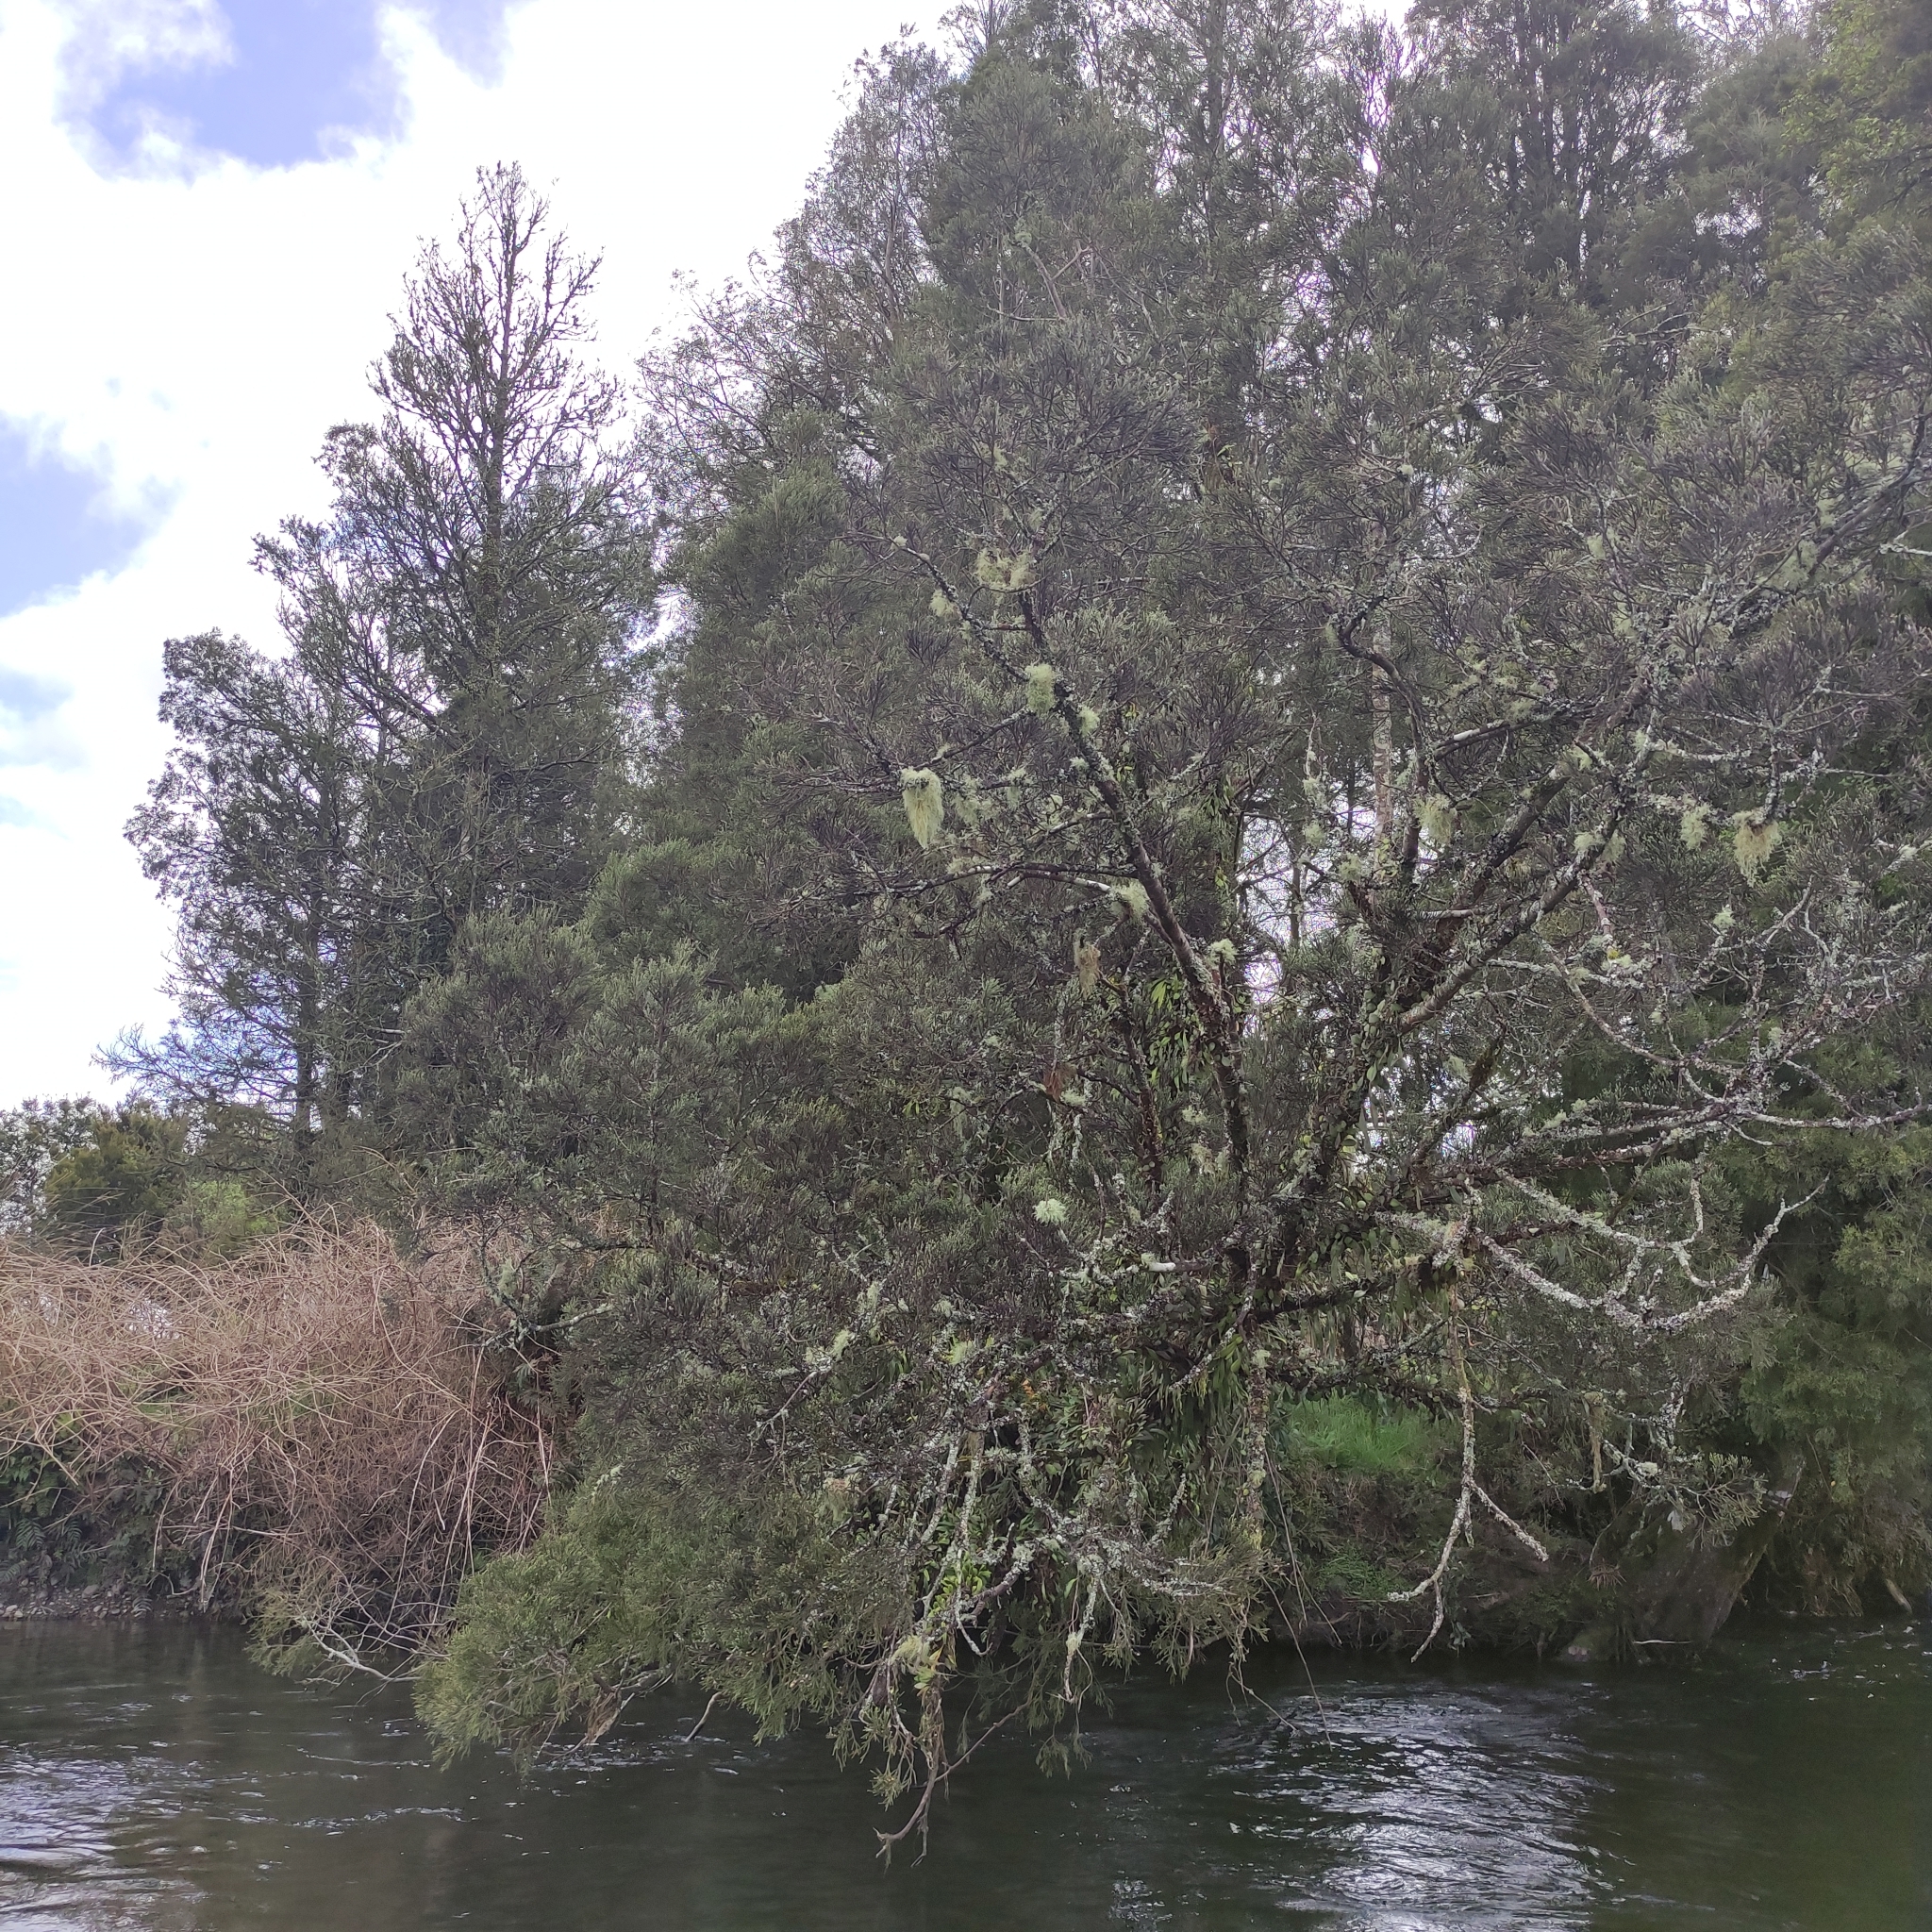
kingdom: Plantae
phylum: Tracheophyta
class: Pinopsida
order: Pinales
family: Podocarpaceae
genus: Dacrycarpus
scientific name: Dacrycarpus dacrydioides
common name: White pine
